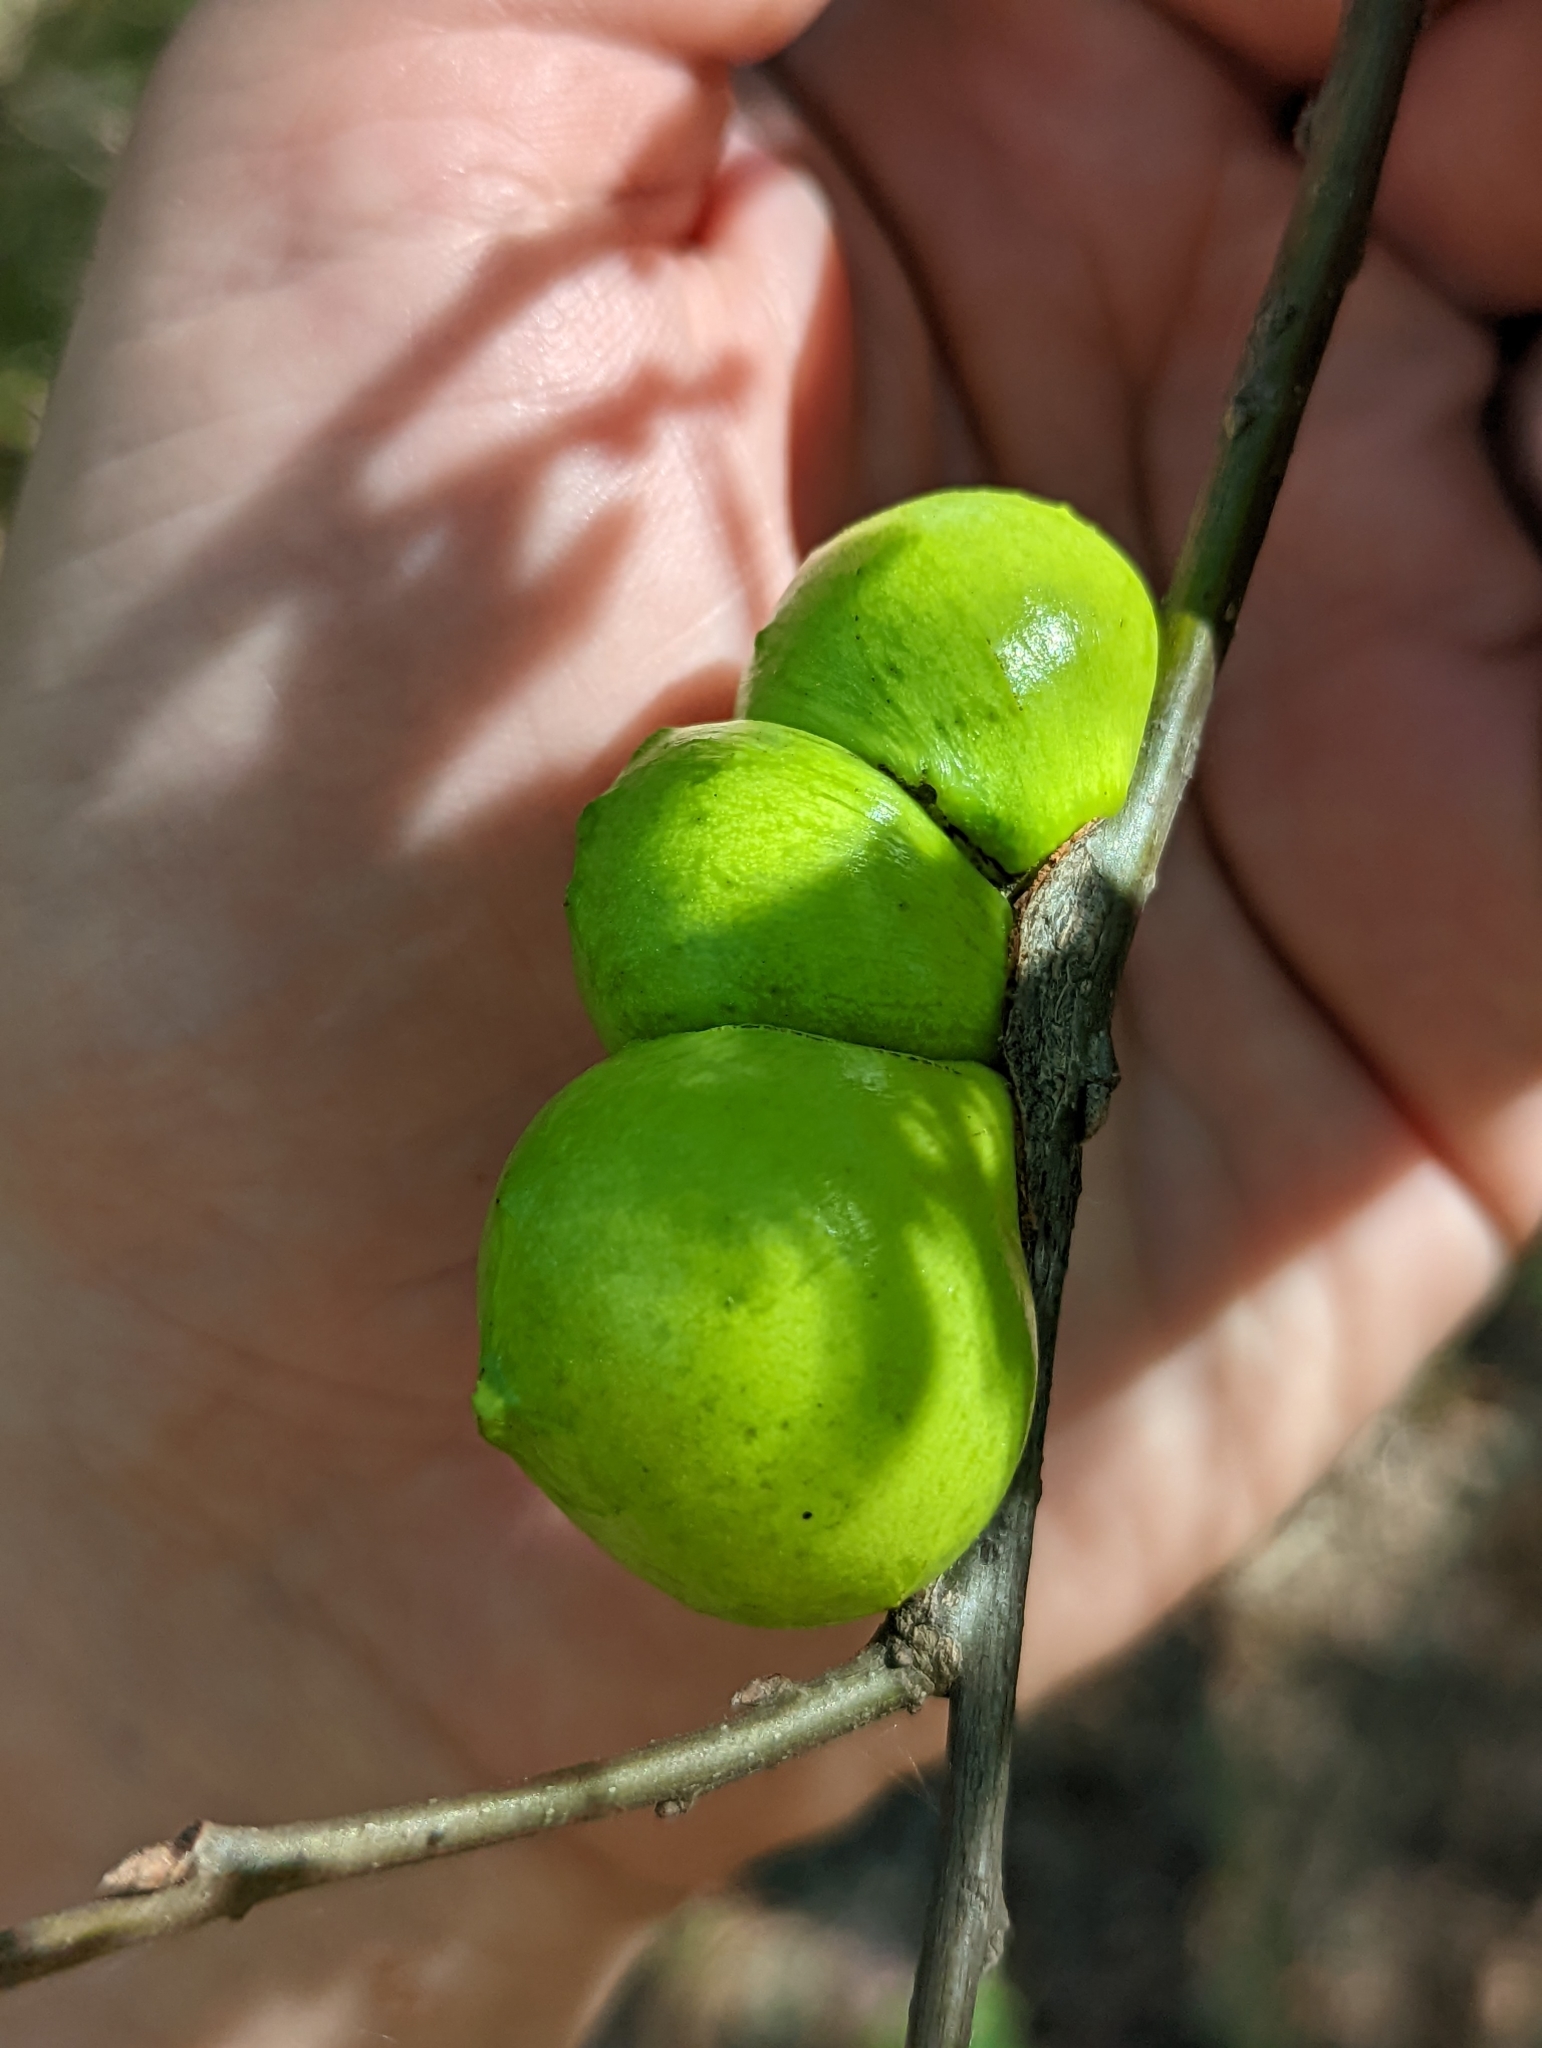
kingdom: Animalia
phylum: Arthropoda
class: Insecta
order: Hymenoptera
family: Cynipidae
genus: Andricus
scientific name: Andricus quercuscalifornicus
